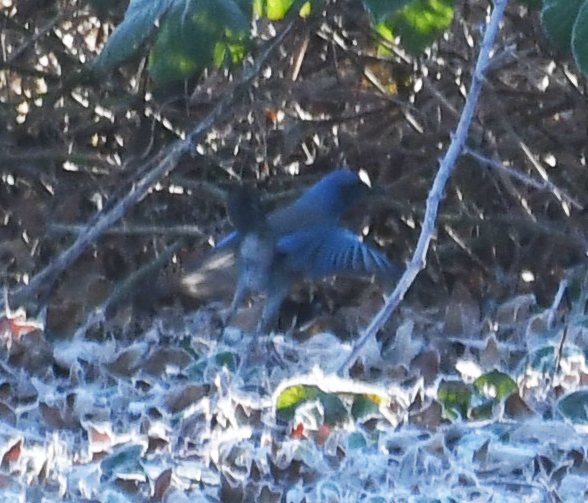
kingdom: Animalia
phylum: Chordata
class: Aves
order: Passeriformes
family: Corvidae
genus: Aphelocoma
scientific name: Aphelocoma californica
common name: California scrub-jay
